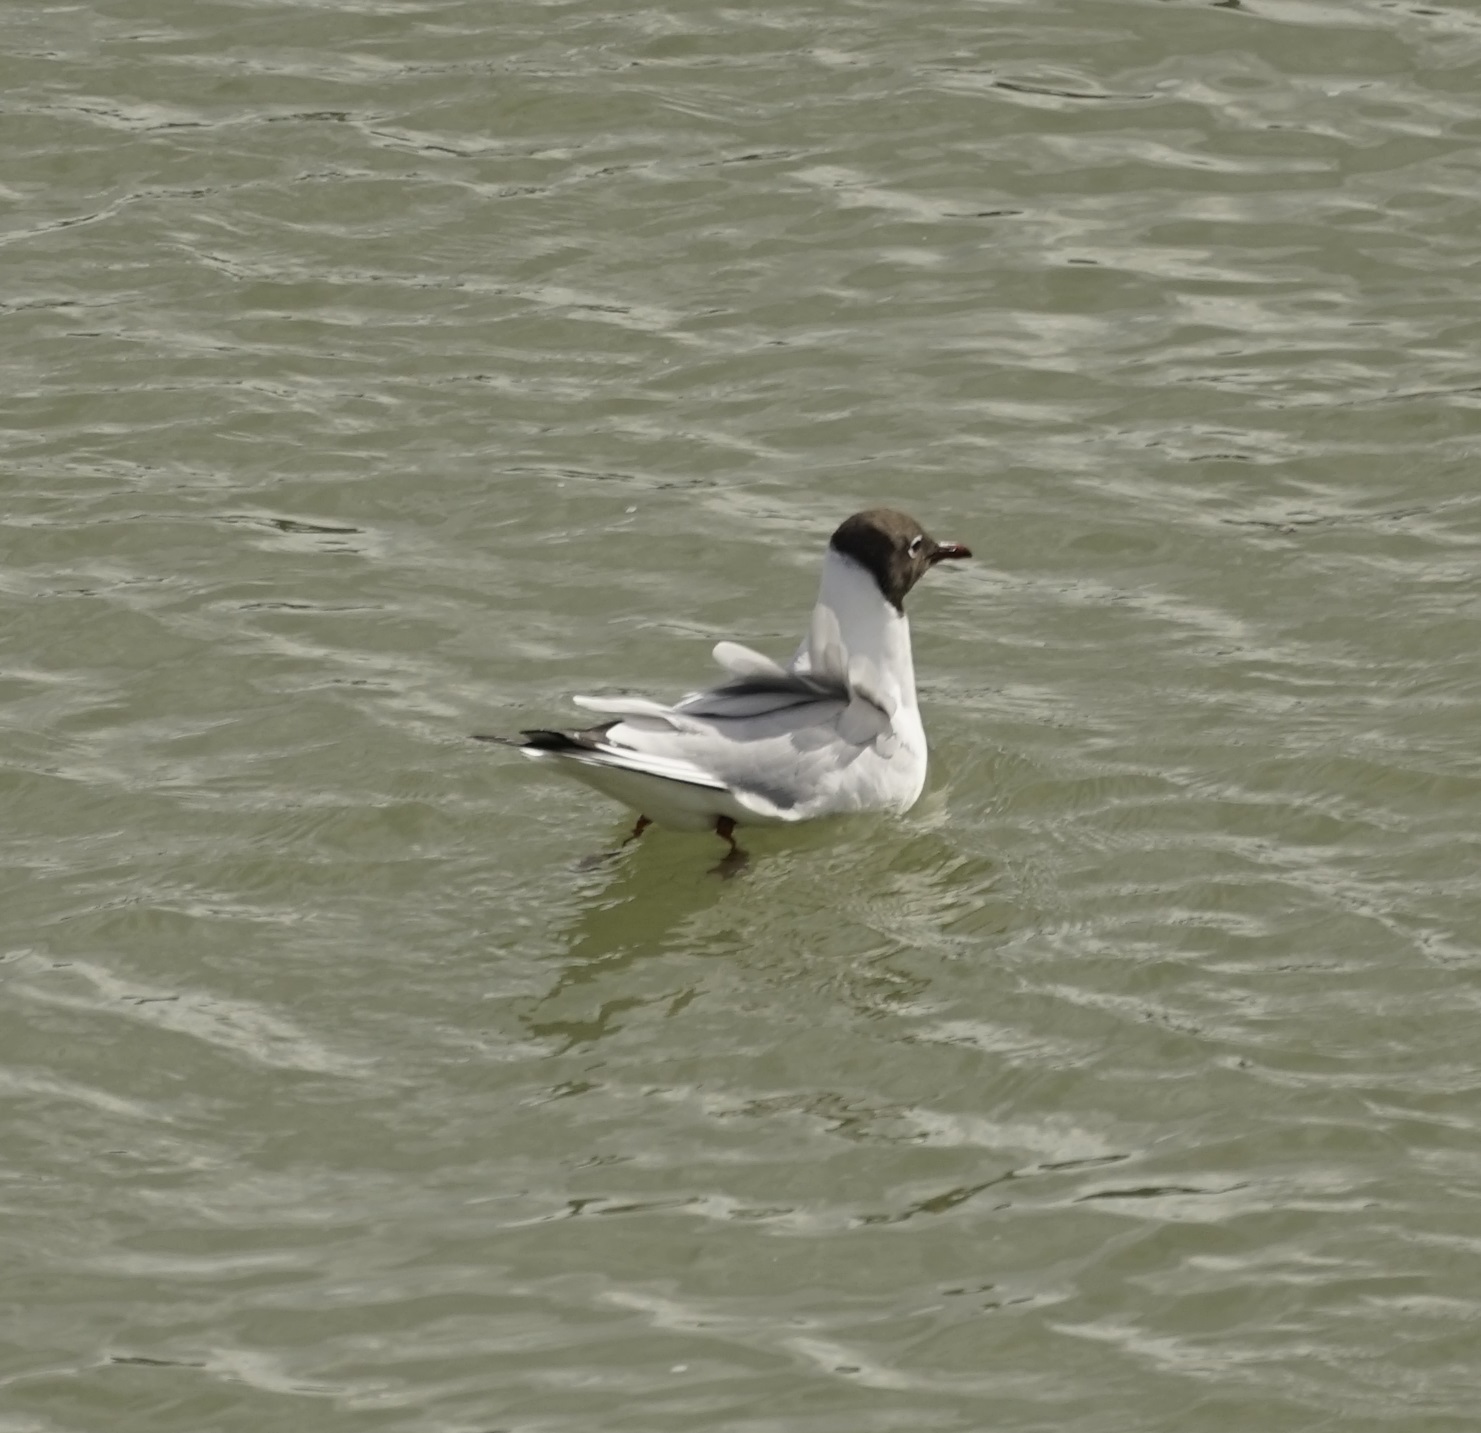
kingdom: Animalia
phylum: Chordata
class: Aves
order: Charadriiformes
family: Laridae
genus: Chroicocephalus
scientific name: Chroicocephalus ridibundus
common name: Black-headed gull
